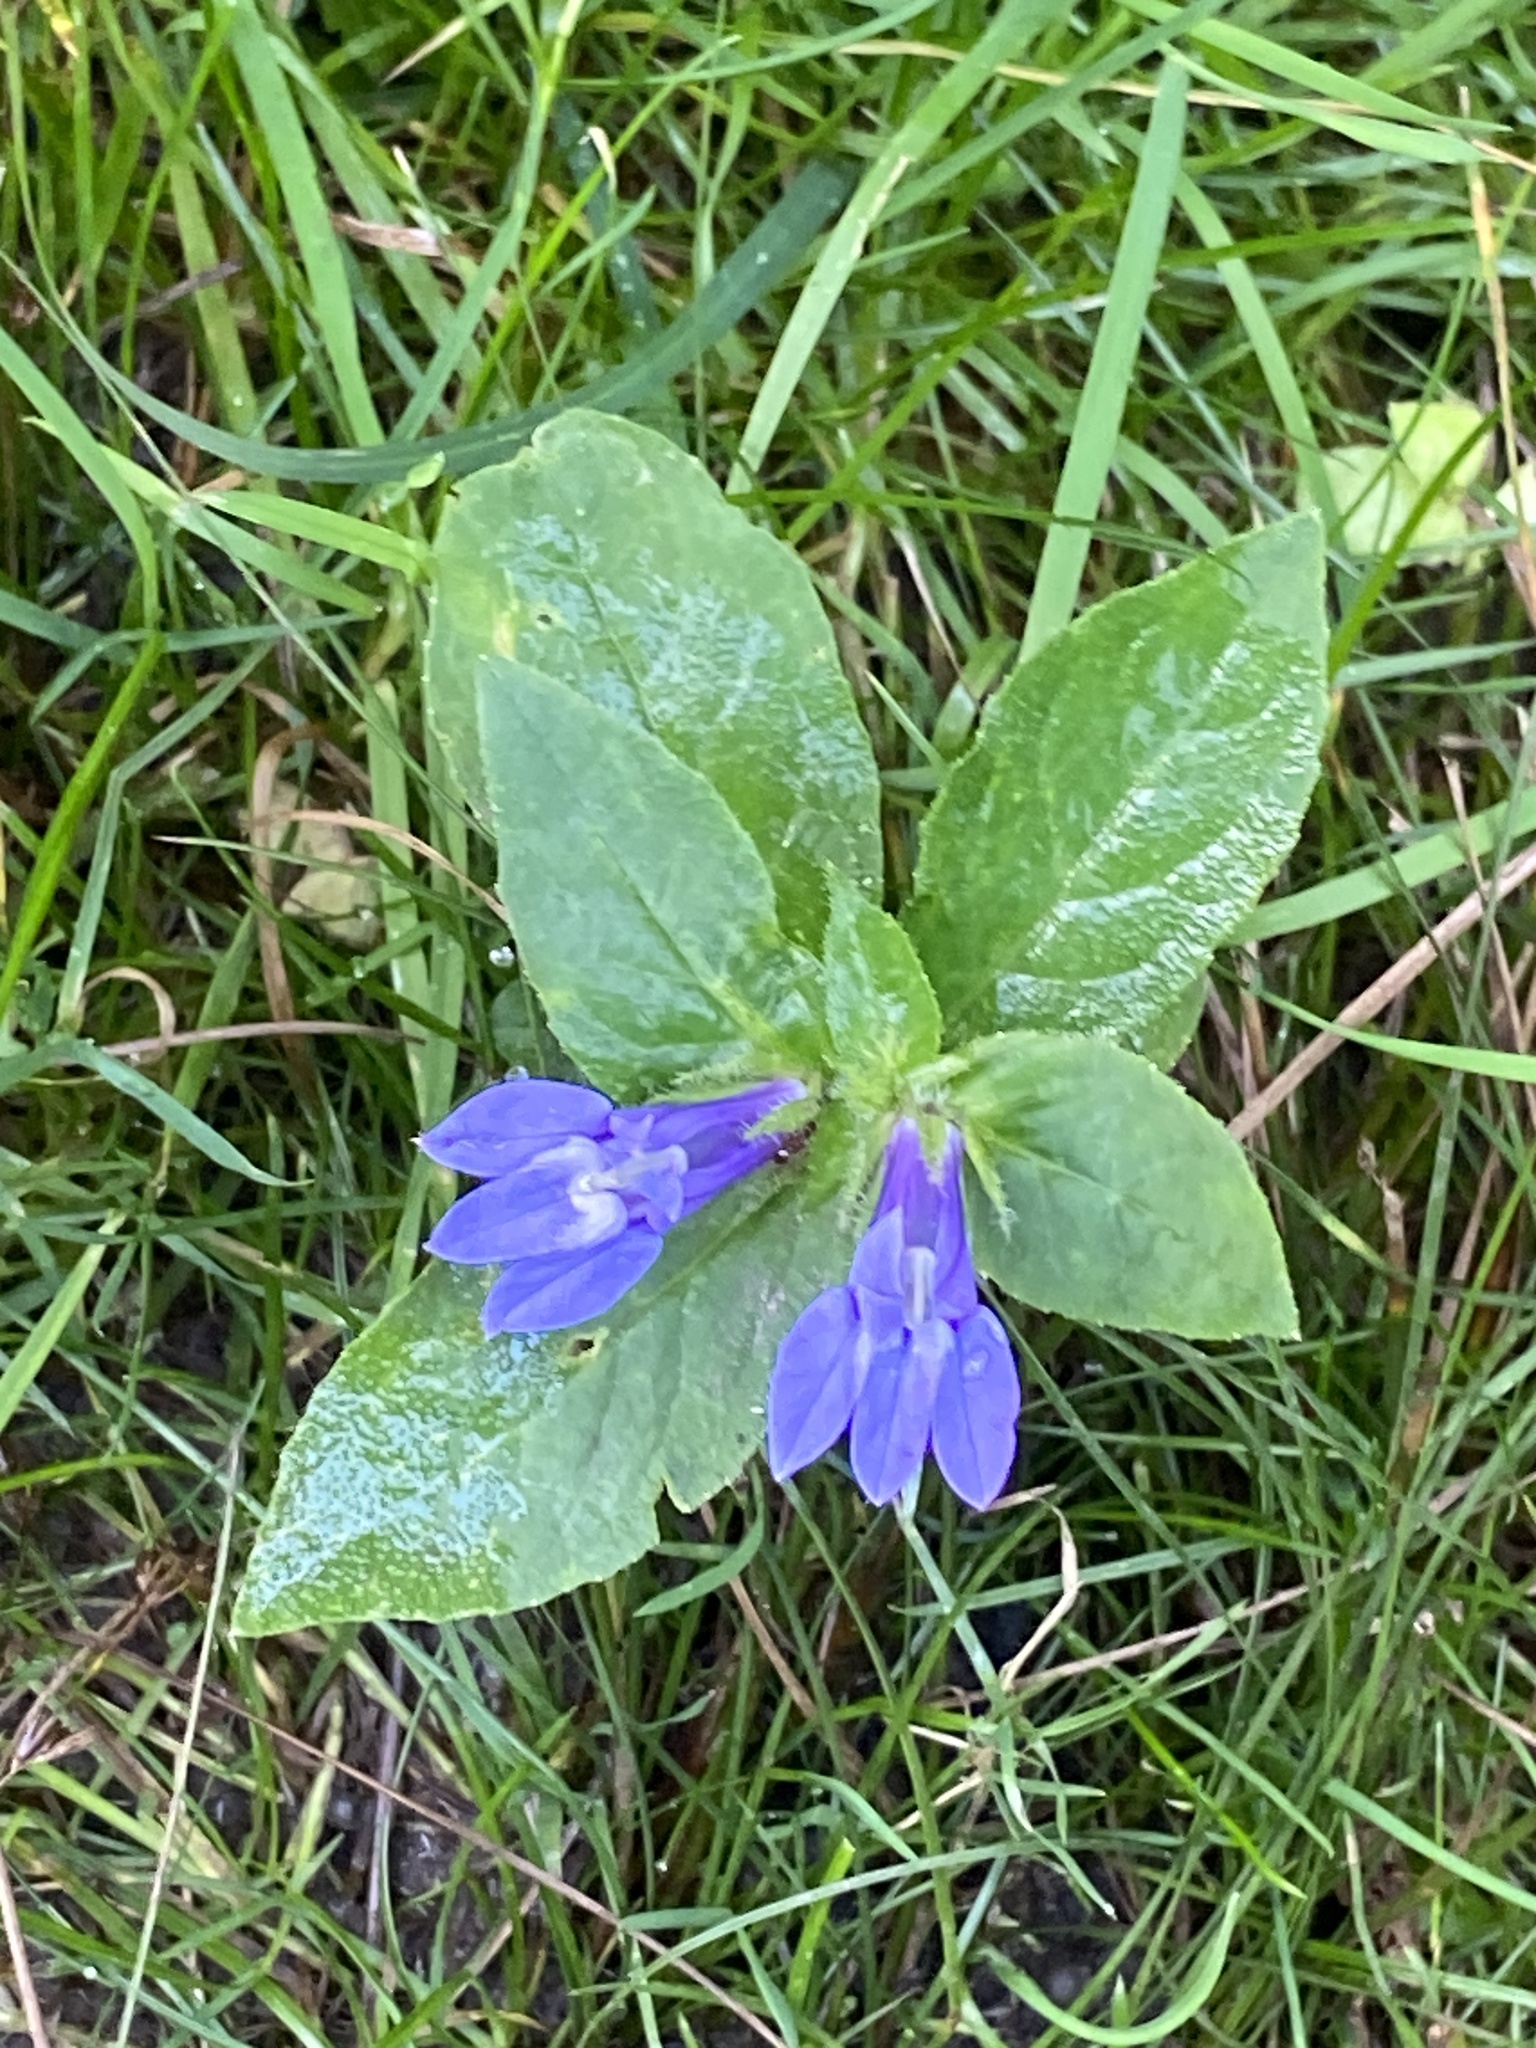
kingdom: Plantae
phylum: Tracheophyta
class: Magnoliopsida
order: Asterales
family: Campanulaceae
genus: Lobelia
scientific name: Lobelia siphilitica
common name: Great lobelia
